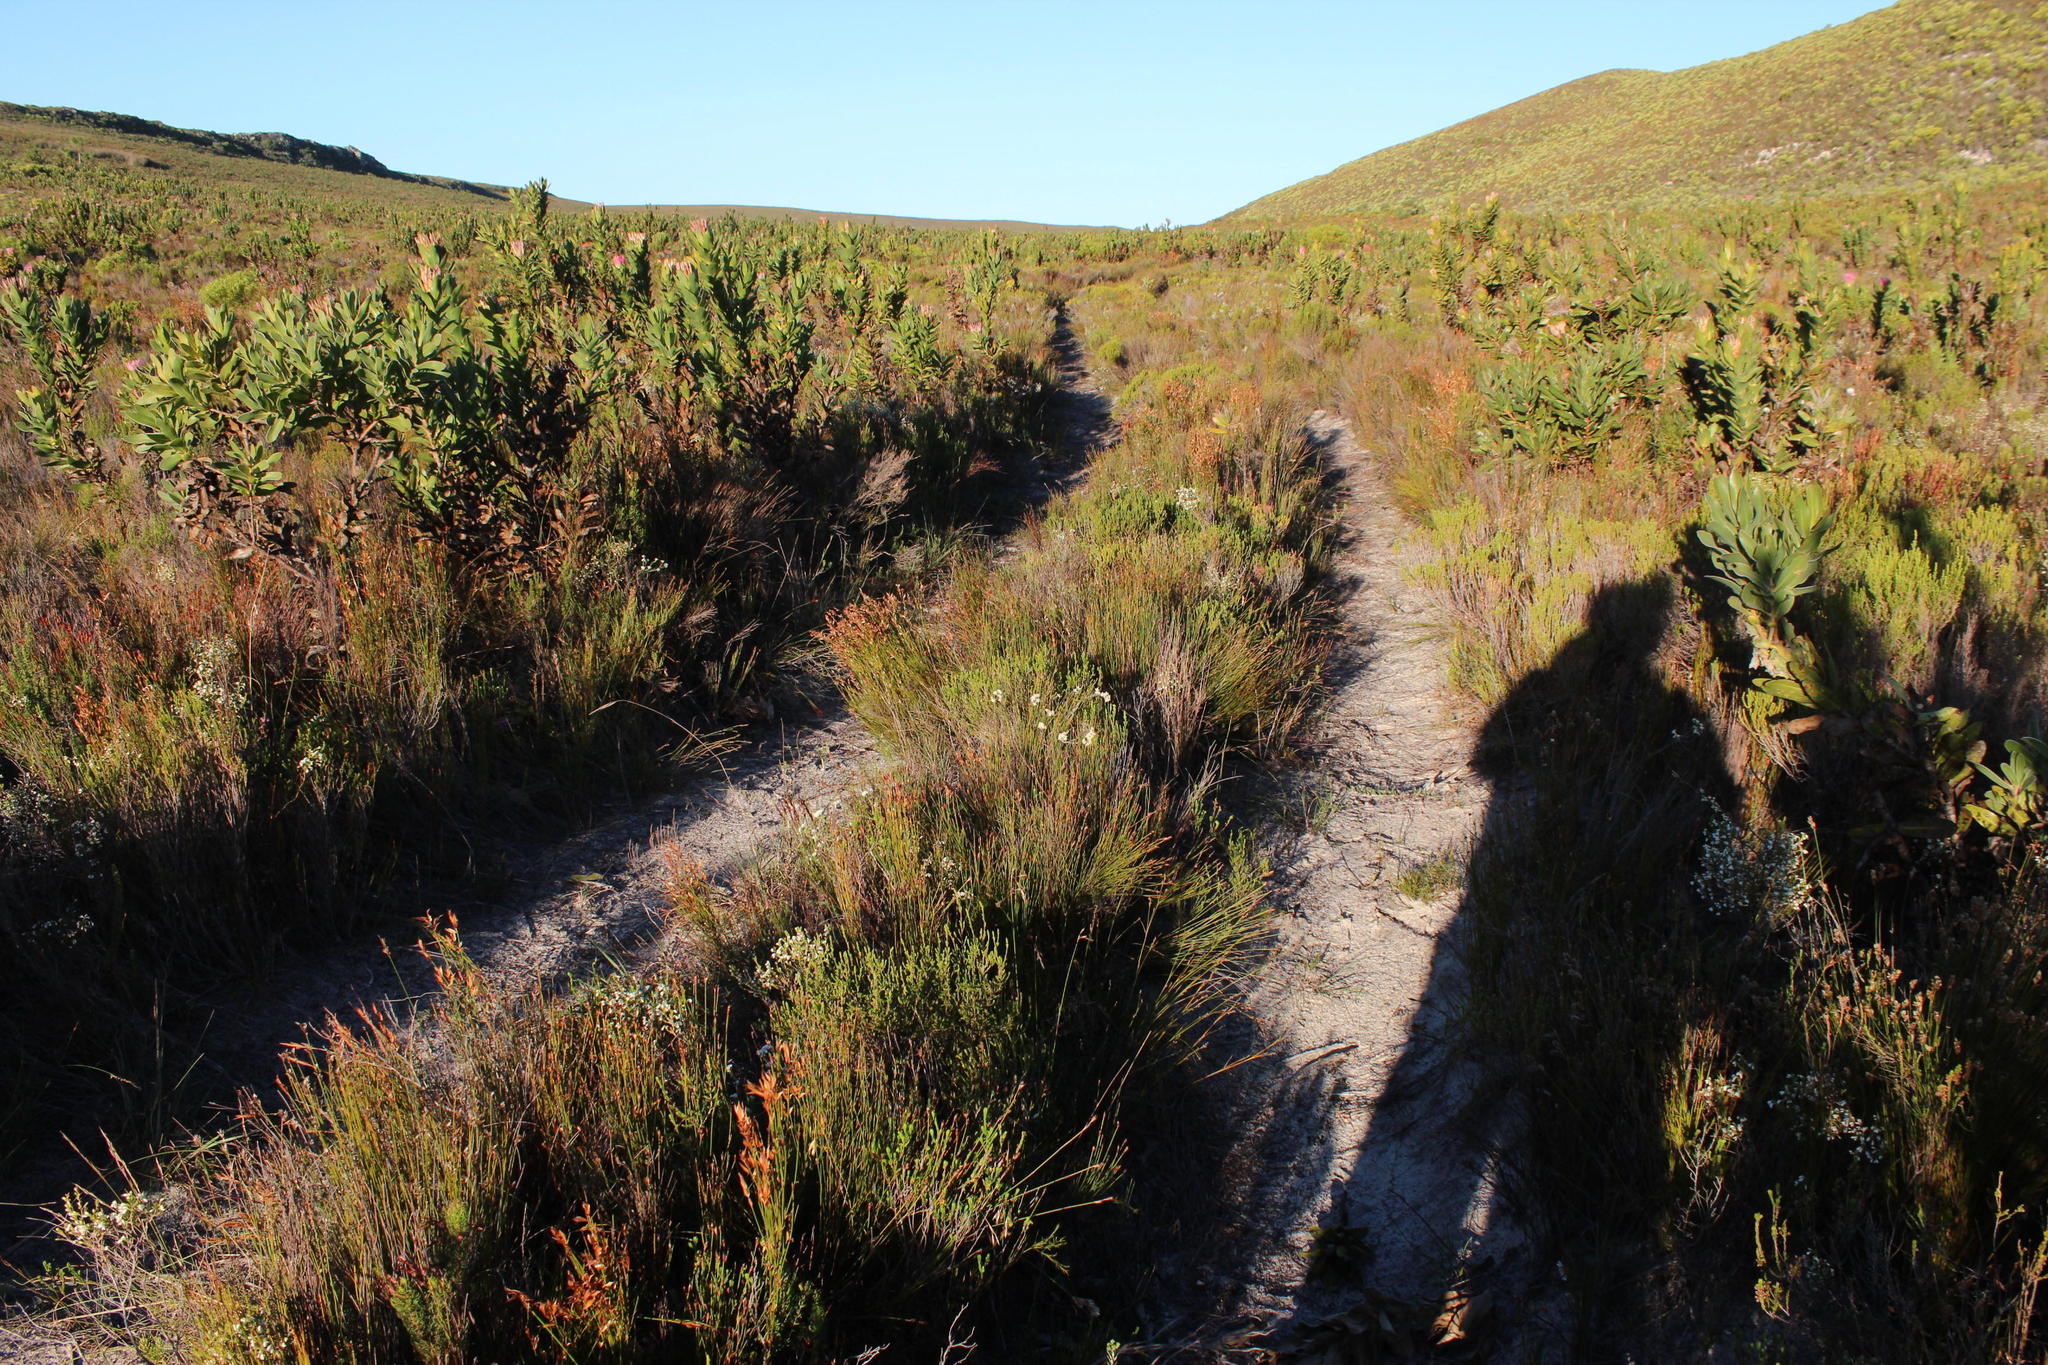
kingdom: Plantae
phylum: Tracheophyta
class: Magnoliopsida
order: Proteales
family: Proteaceae
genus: Protea
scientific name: Protea compacta
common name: Bot river protea
